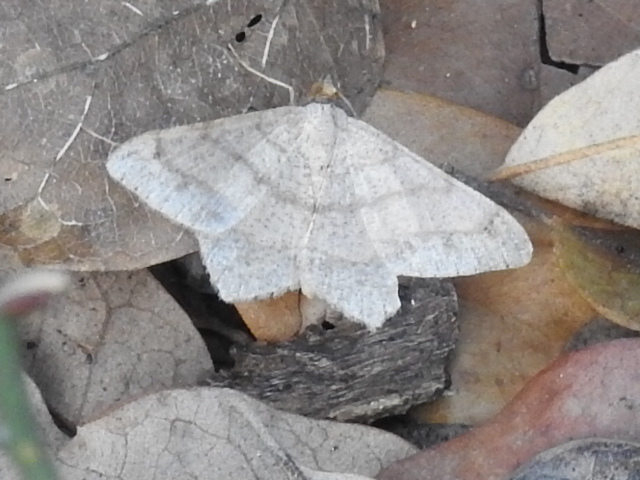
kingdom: Animalia
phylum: Arthropoda
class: Insecta
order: Lepidoptera
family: Geometridae
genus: Macaria
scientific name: Macaria abydata
